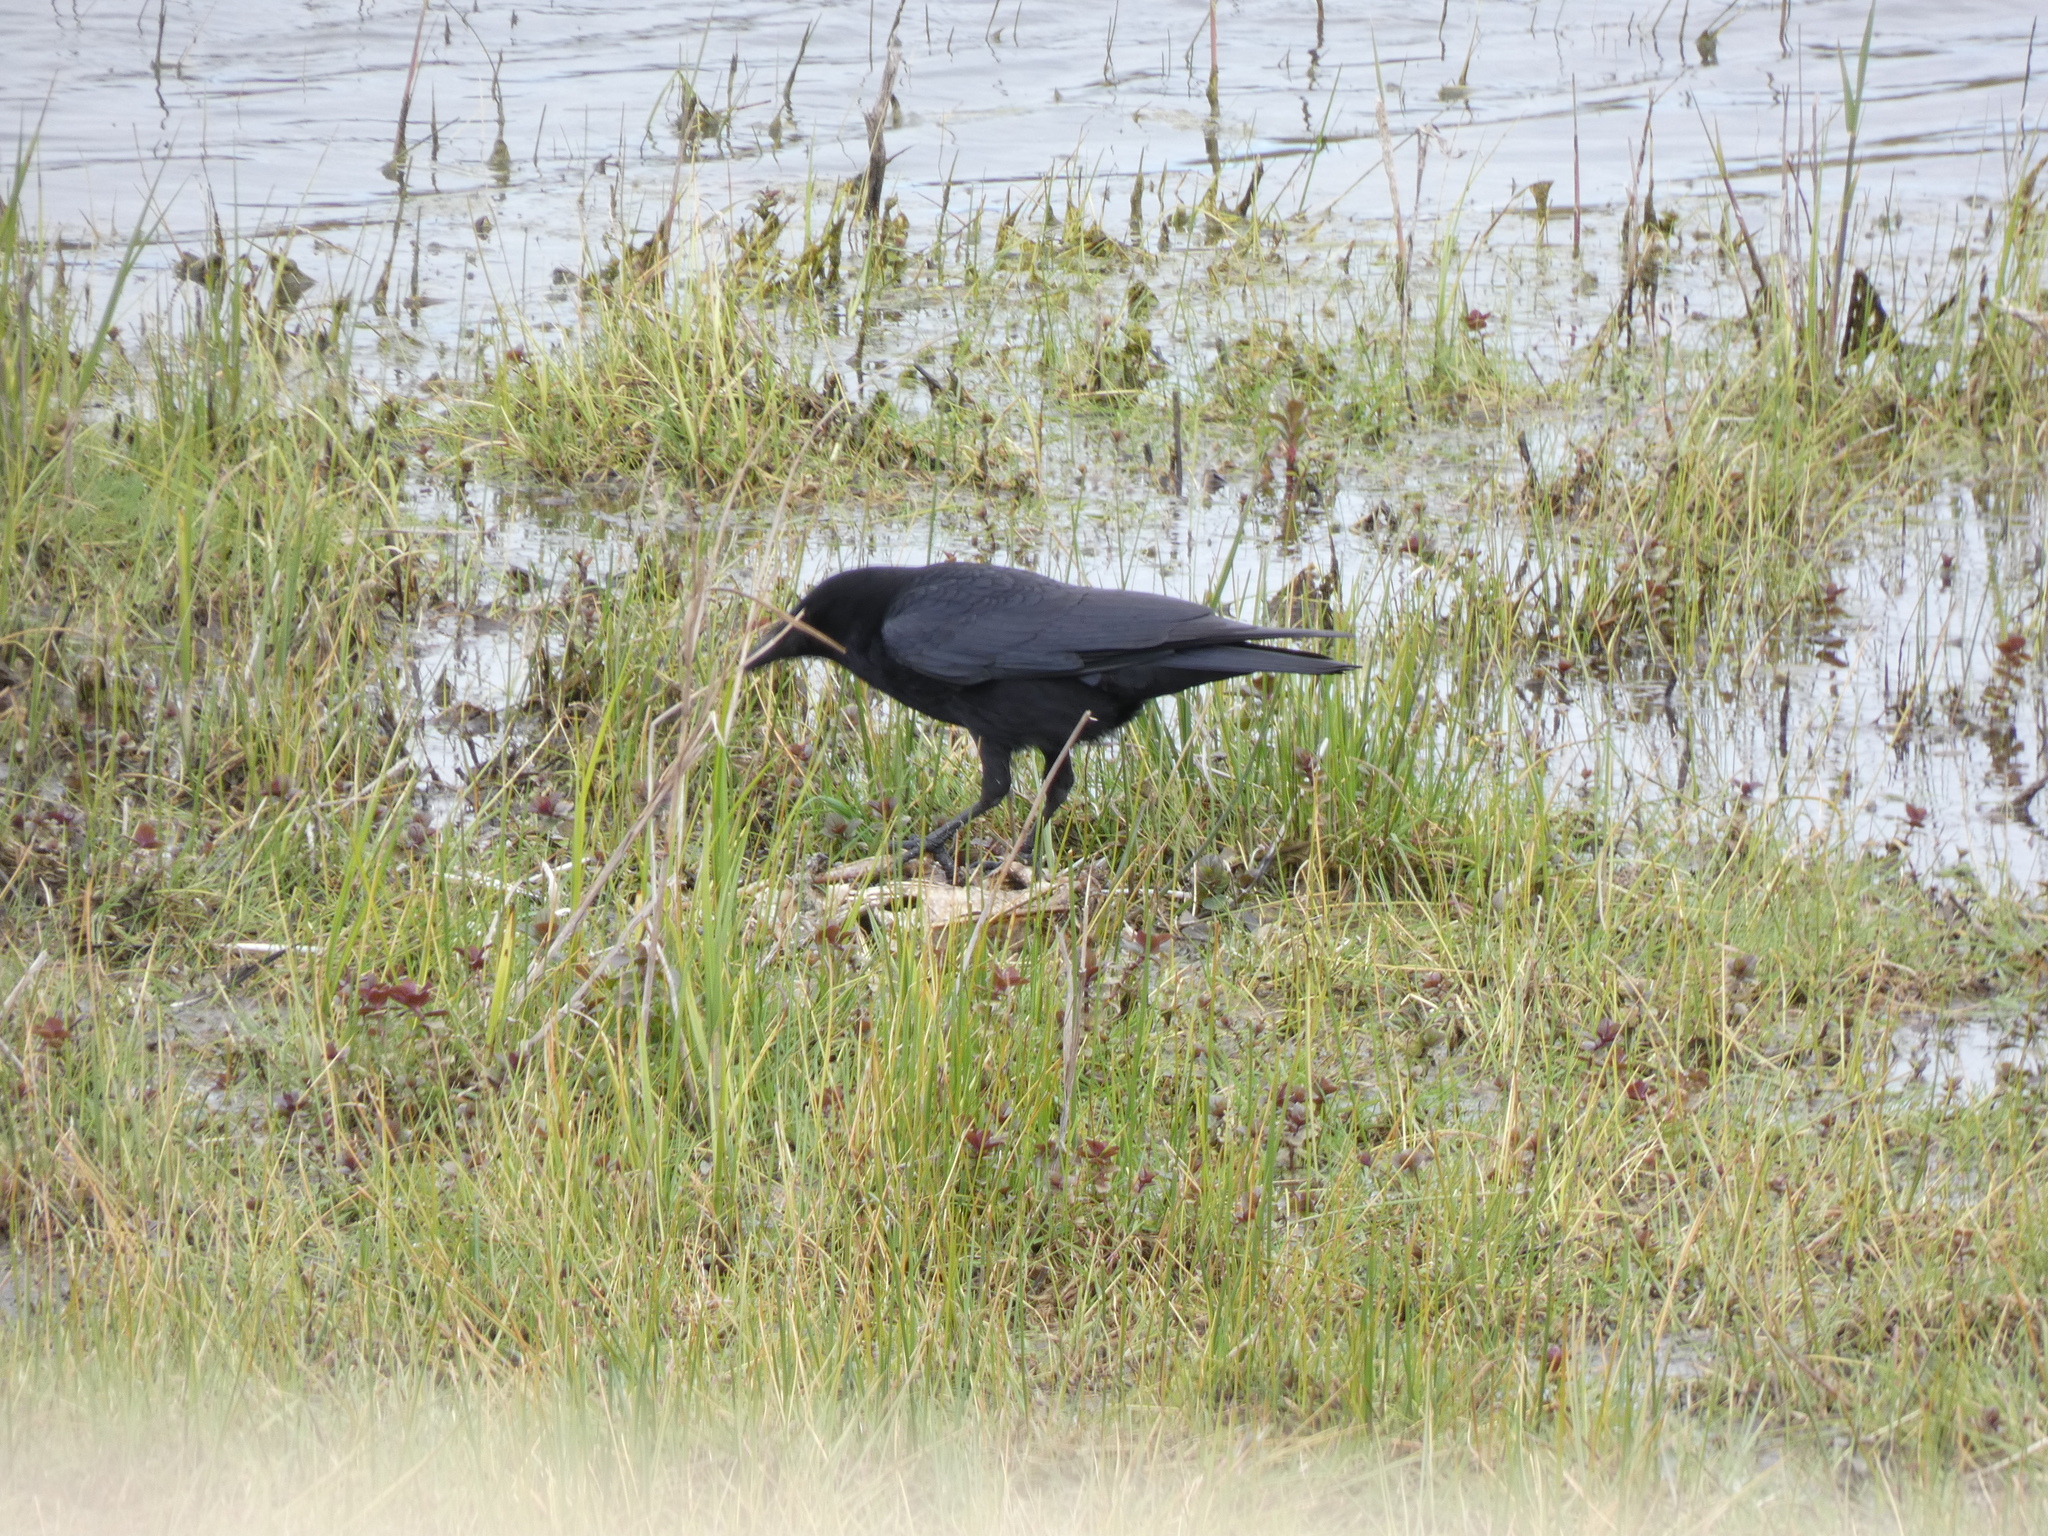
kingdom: Animalia
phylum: Chordata
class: Aves
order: Passeriformes
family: Corvidae
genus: Corvus
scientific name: Corvus corone
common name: Carrion crow
